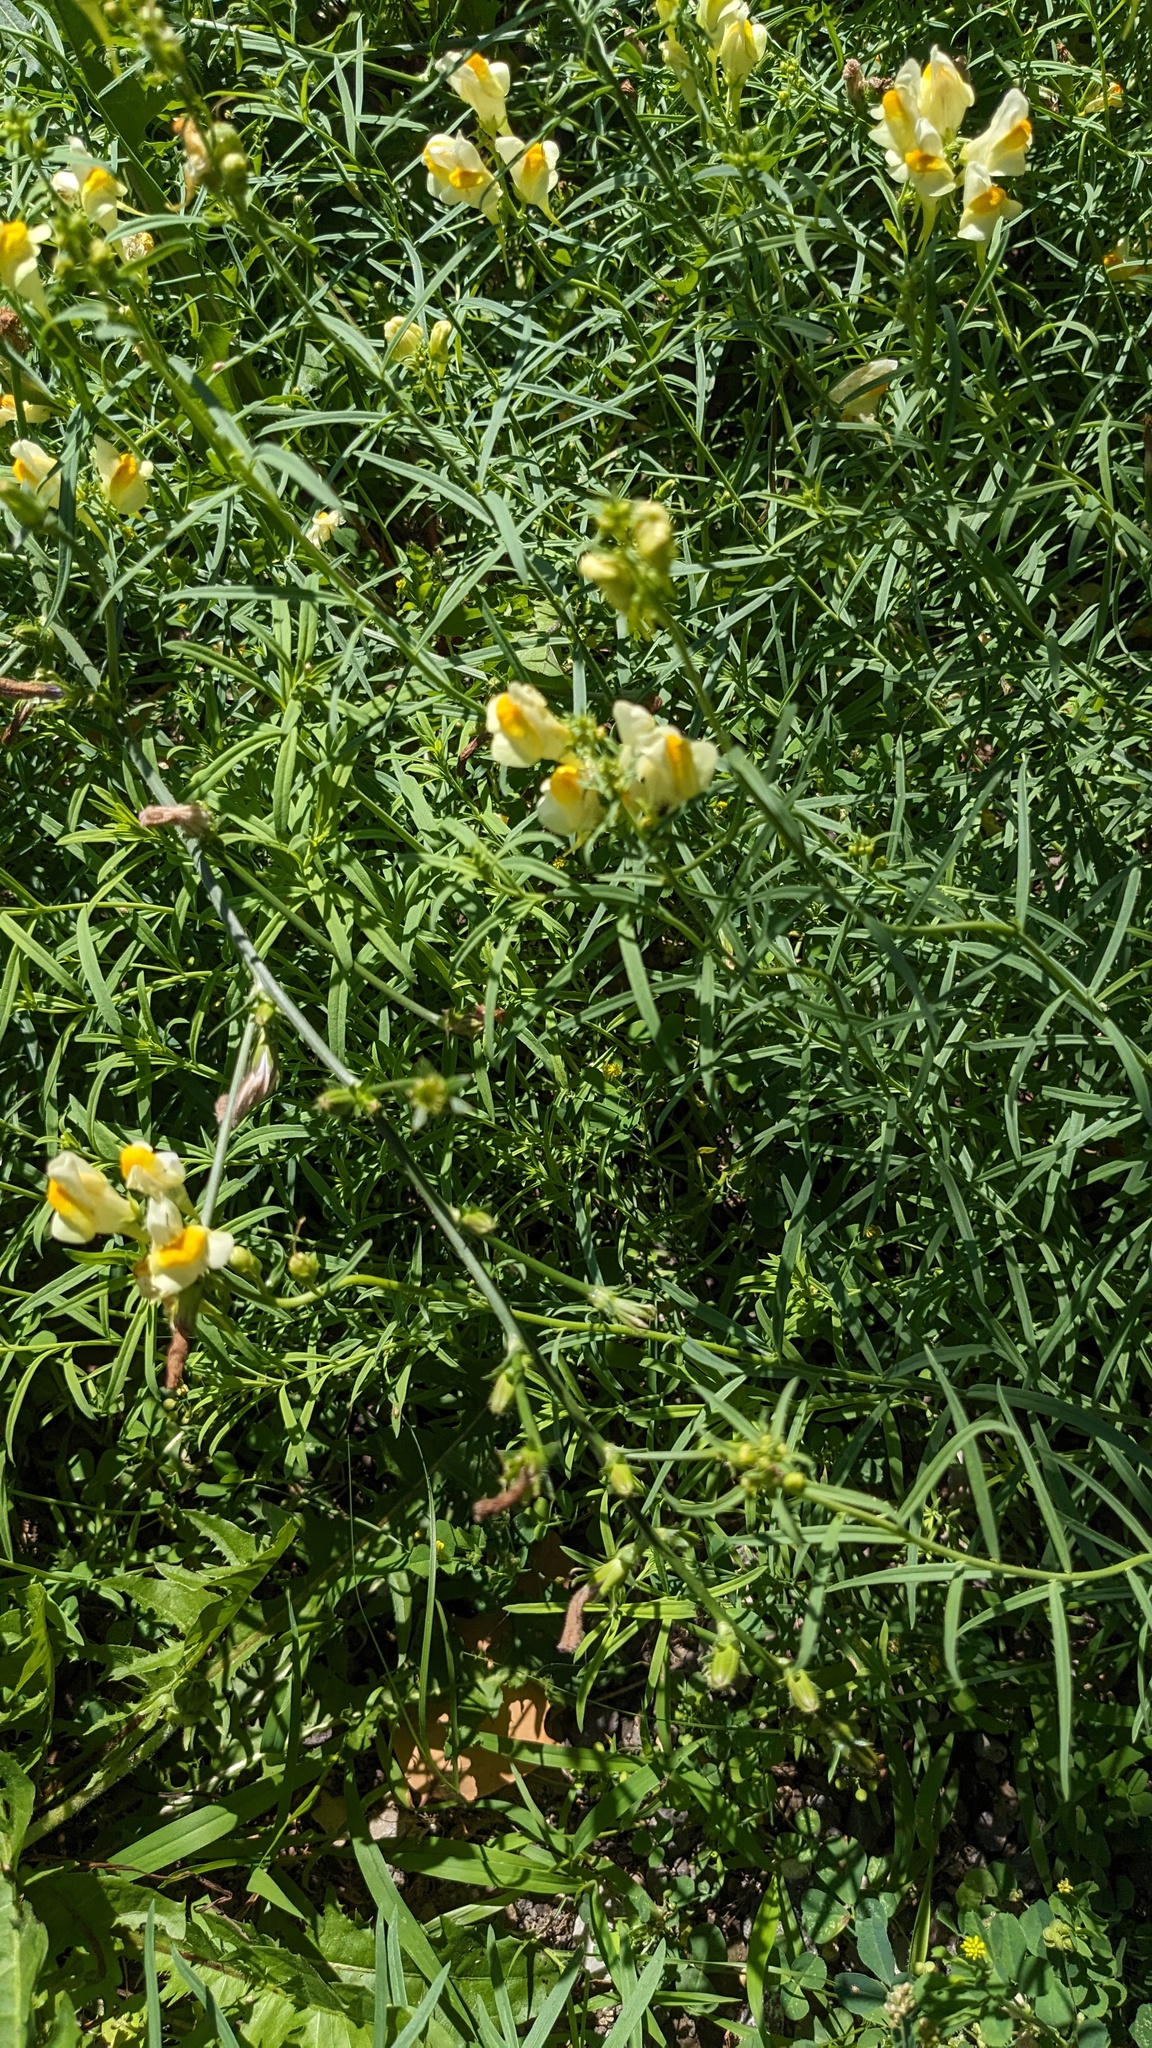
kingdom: Plantae
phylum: Tracheophyta
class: Magnoliopsida
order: Lamiales
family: Plantaginaceae
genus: Linaria
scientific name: Linaria vulgaris
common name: Butter and eggs
